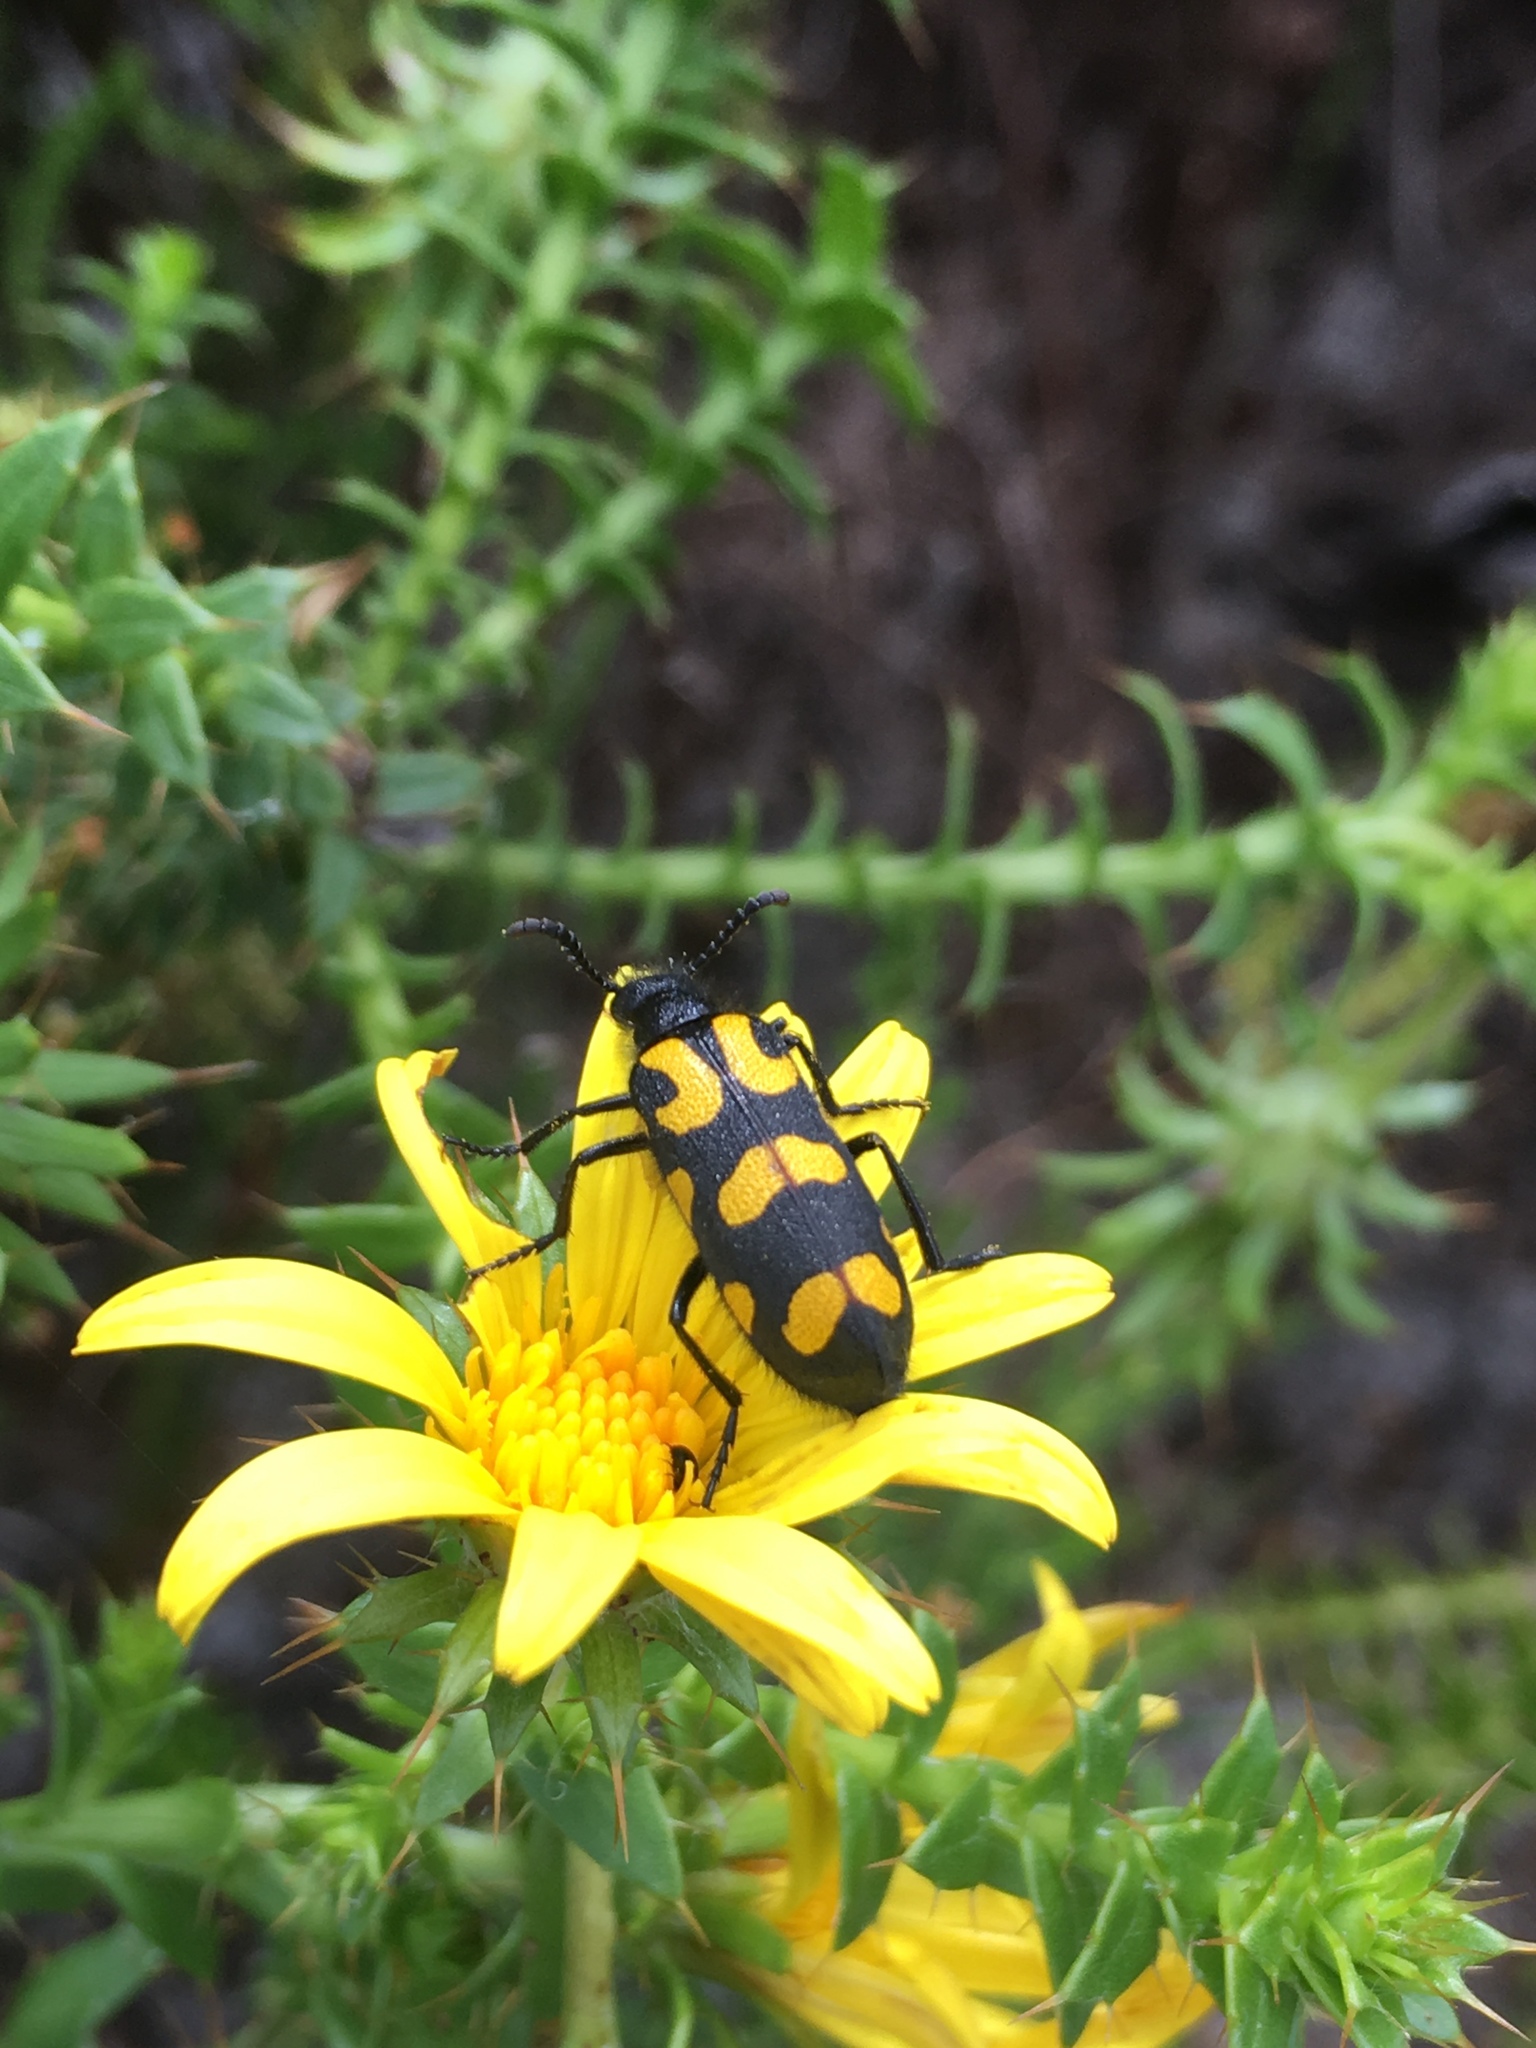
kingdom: Animalia
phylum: Arthropoda
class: Insecta
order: Coleoptera
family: Meloidae
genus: Ceroctis
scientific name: Ceroctis capensis
